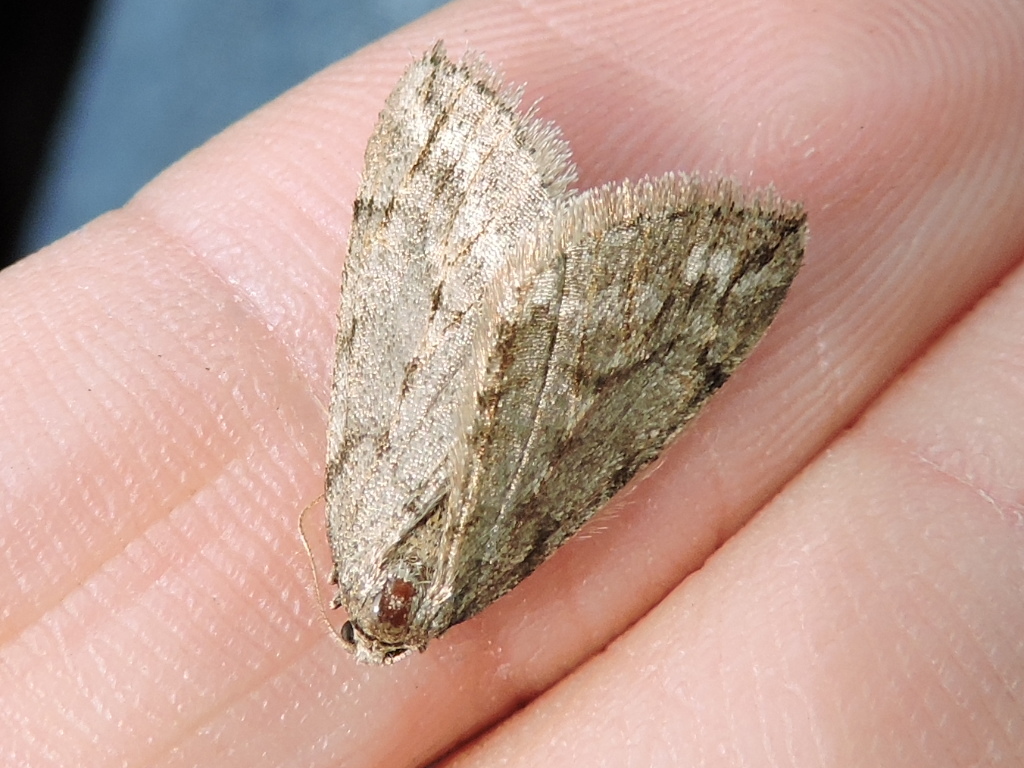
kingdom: Animalia
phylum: Arthropoda
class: Insecta
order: Lepidoptera
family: Geometridae
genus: Paleacrita
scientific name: Paleacrita vernata
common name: Spring cankerworm
